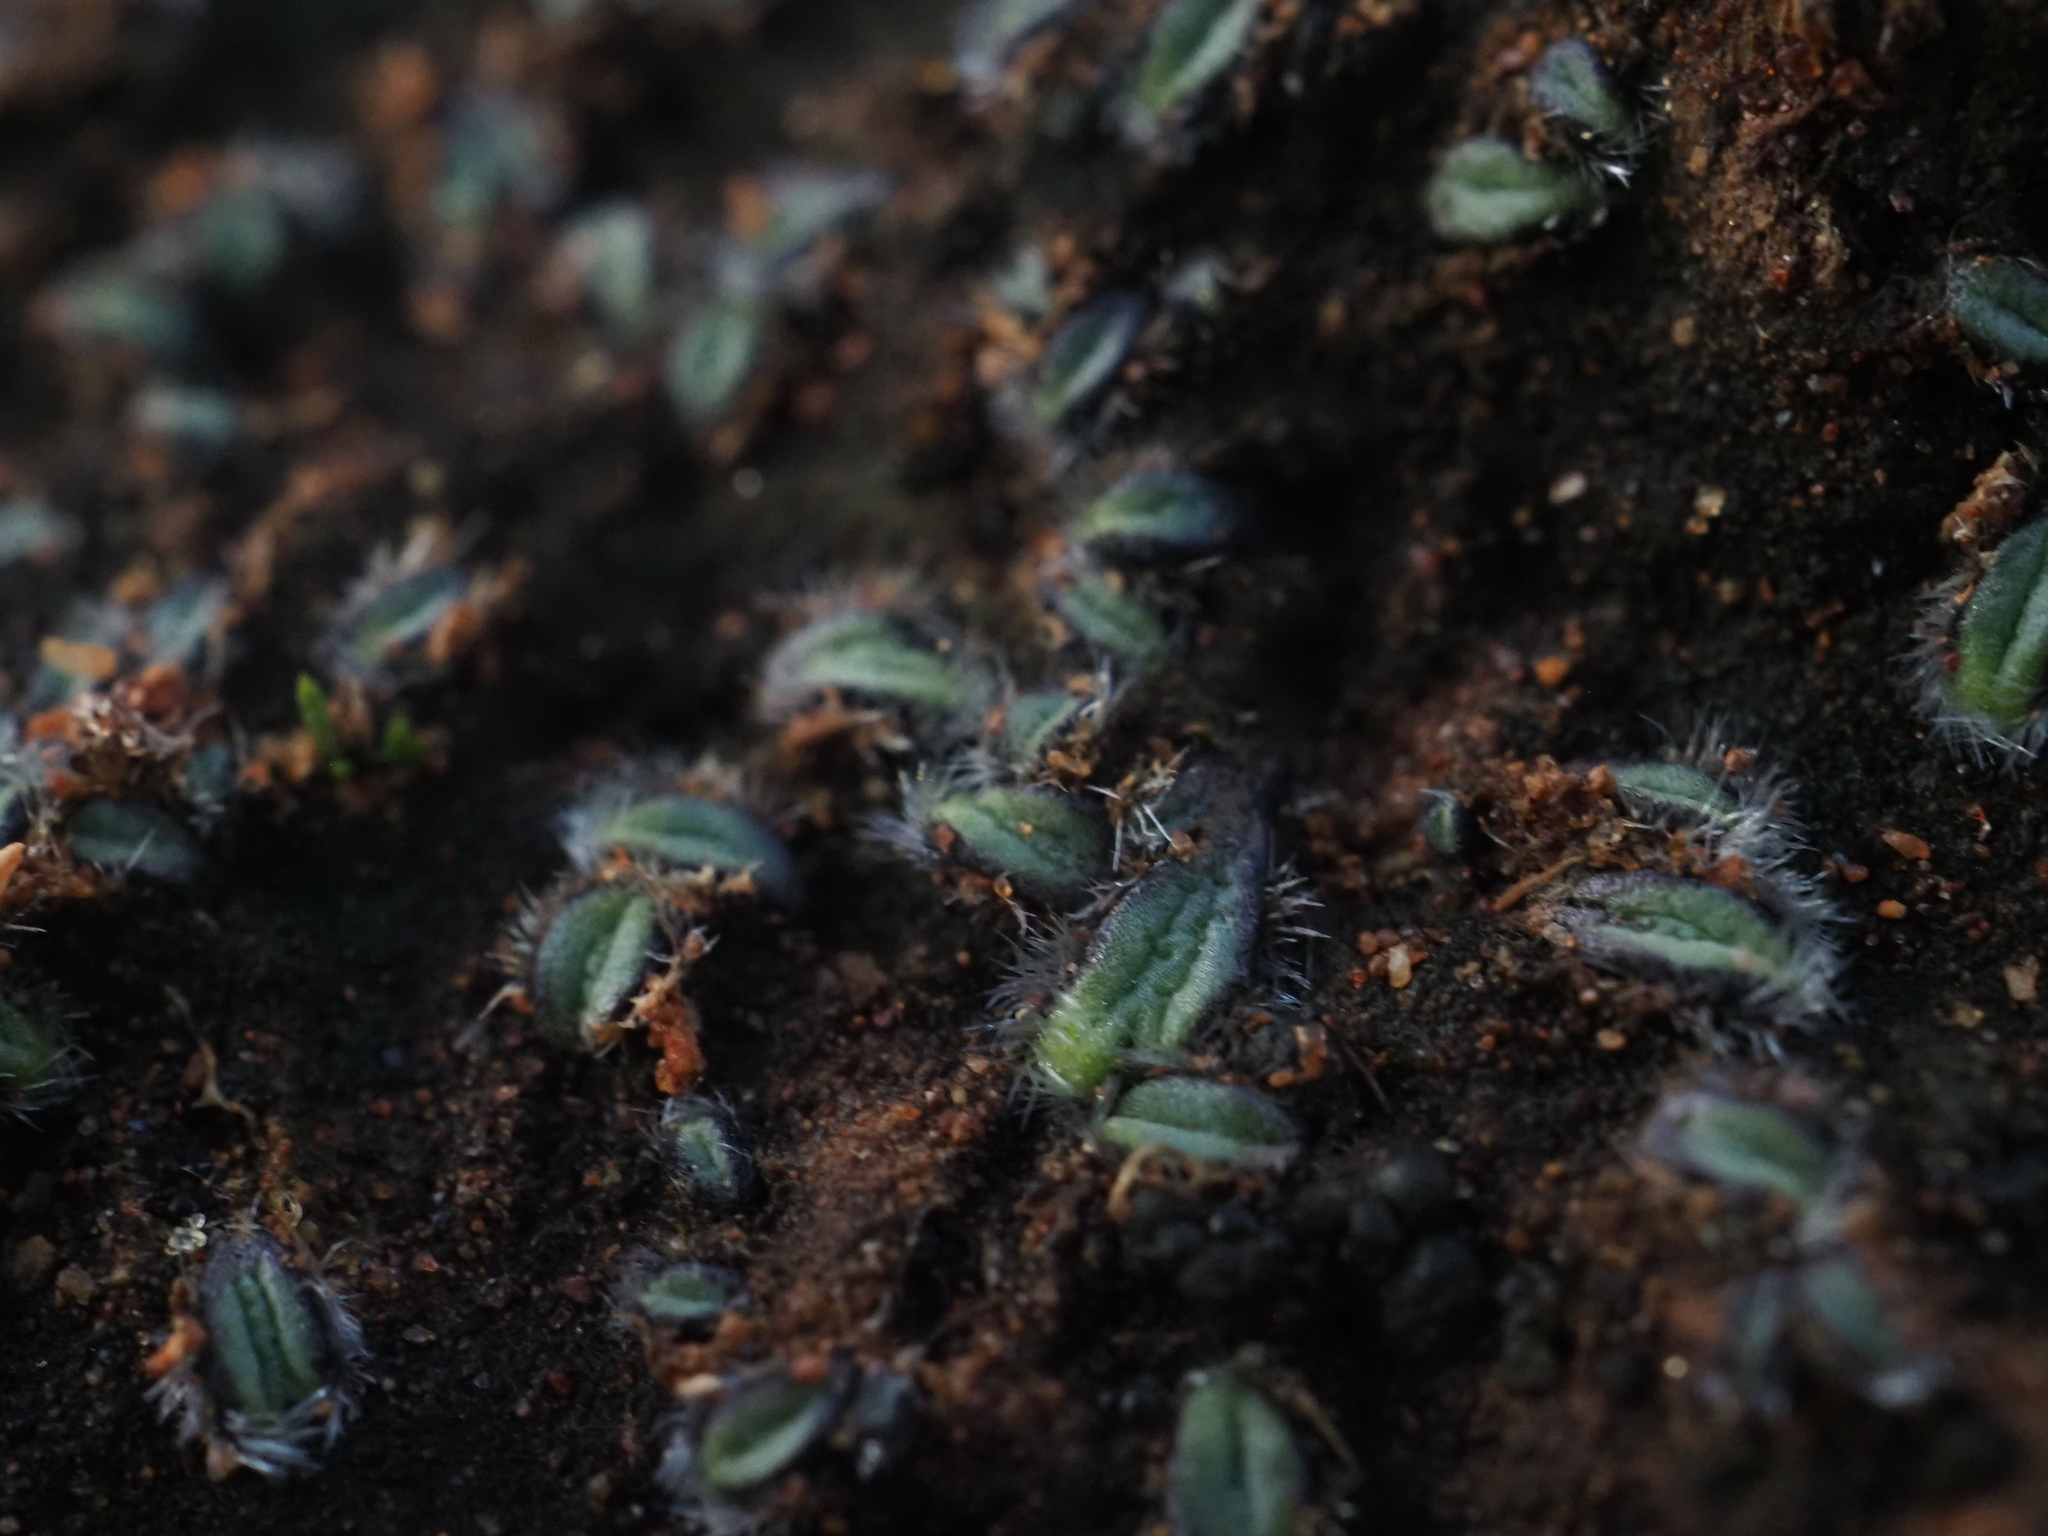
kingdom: Plantae
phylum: Marchantiophyta
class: Marchantiopsida
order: Marchantiales
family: Ricciaceae
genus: Riccia
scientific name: Riccia crinita
